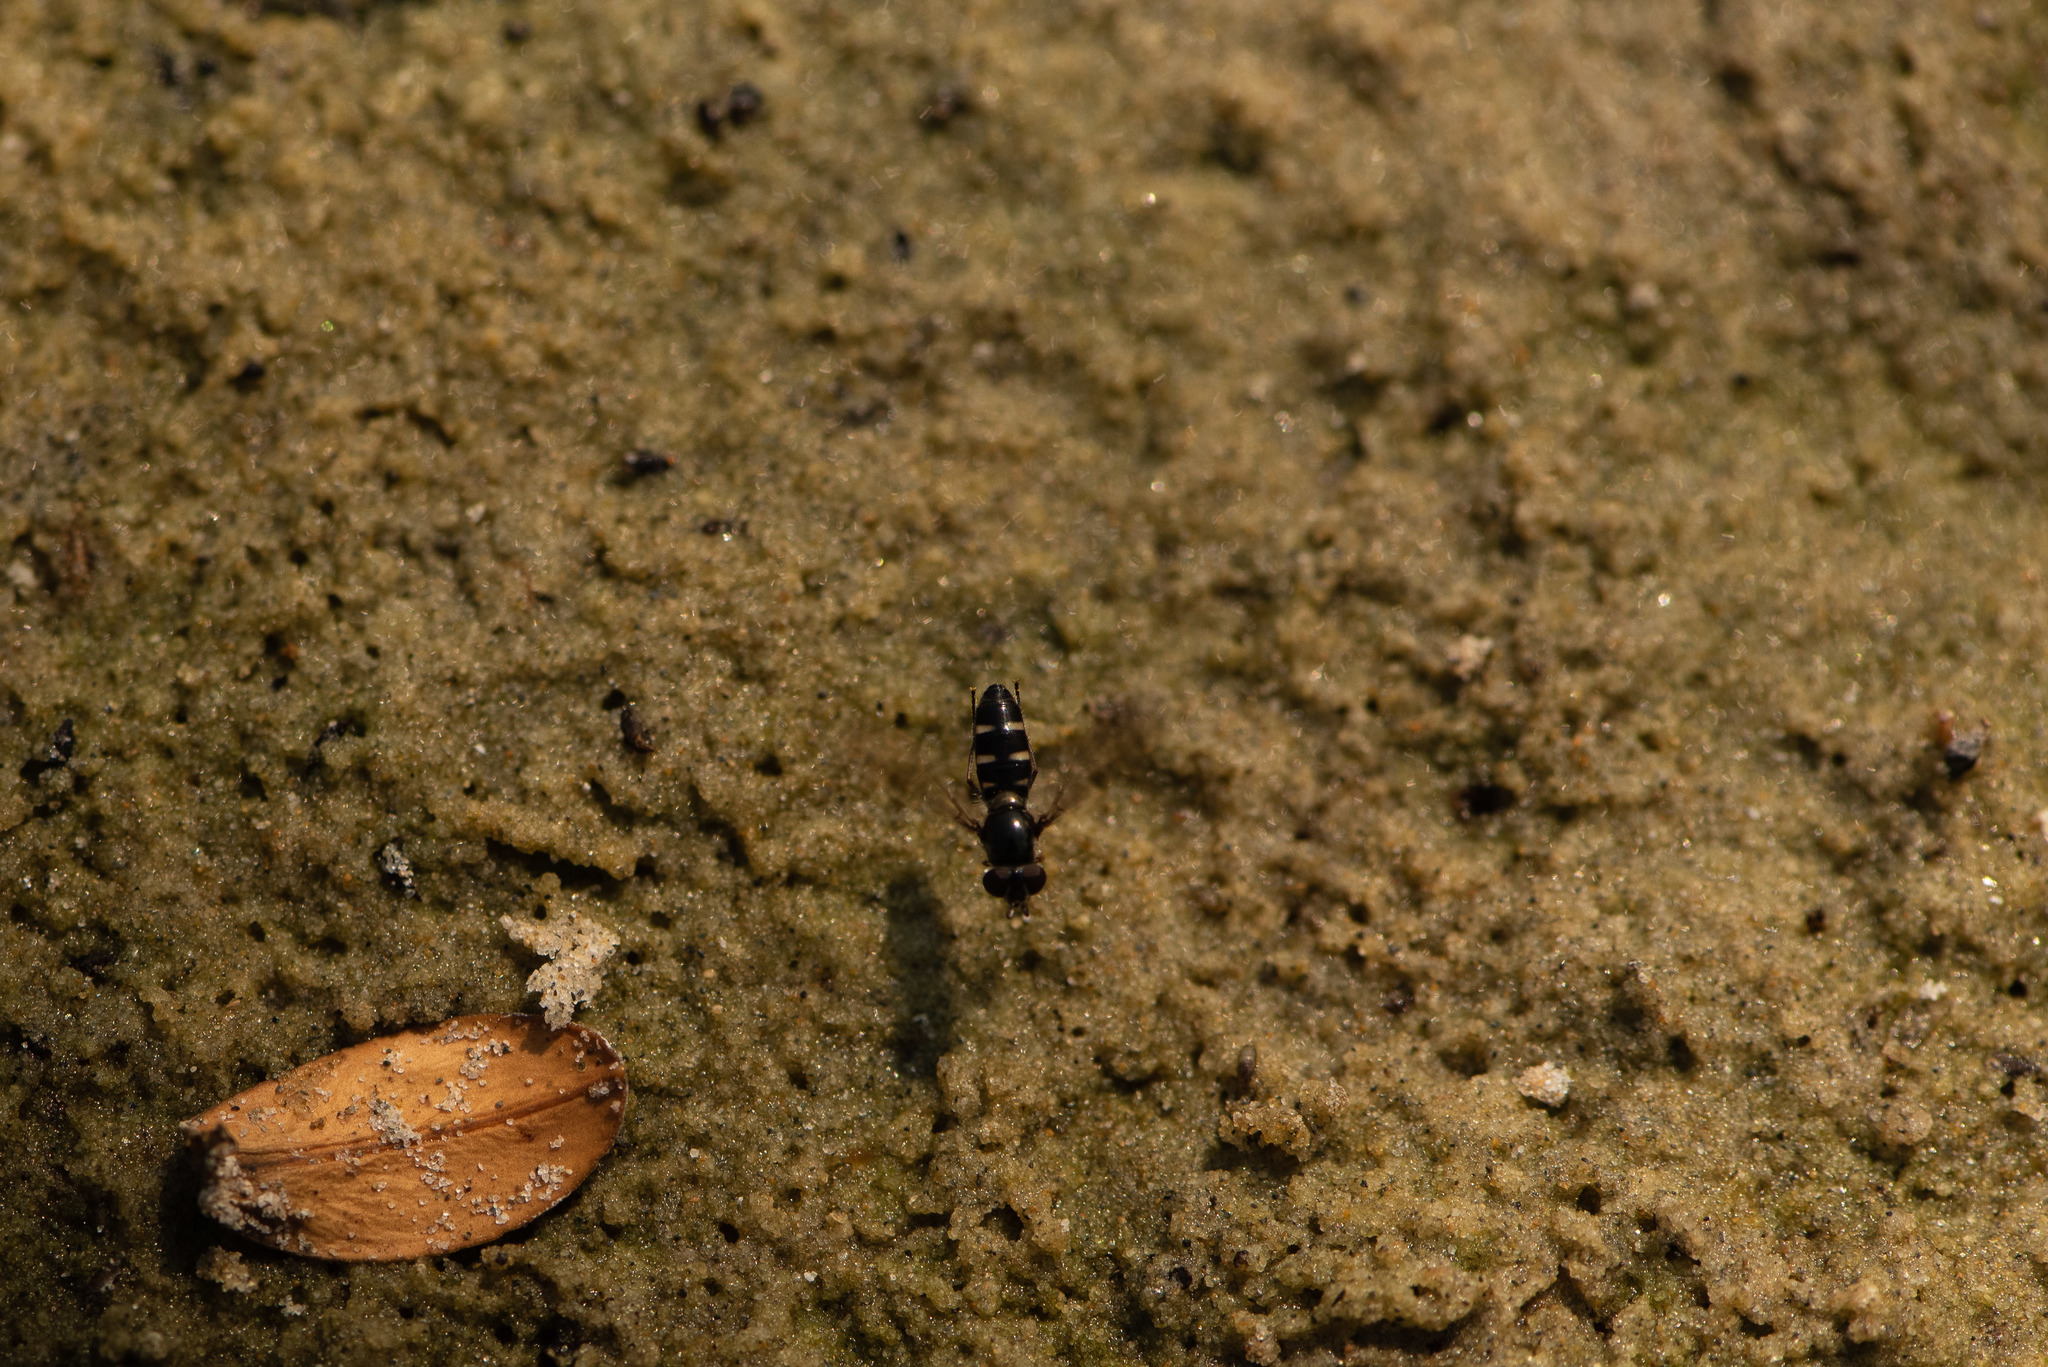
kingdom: Animalia
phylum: Arthropoda
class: Insecta
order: Diptera
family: Syrphidae
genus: Melangyna
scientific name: Melangyna novaezelandiae
